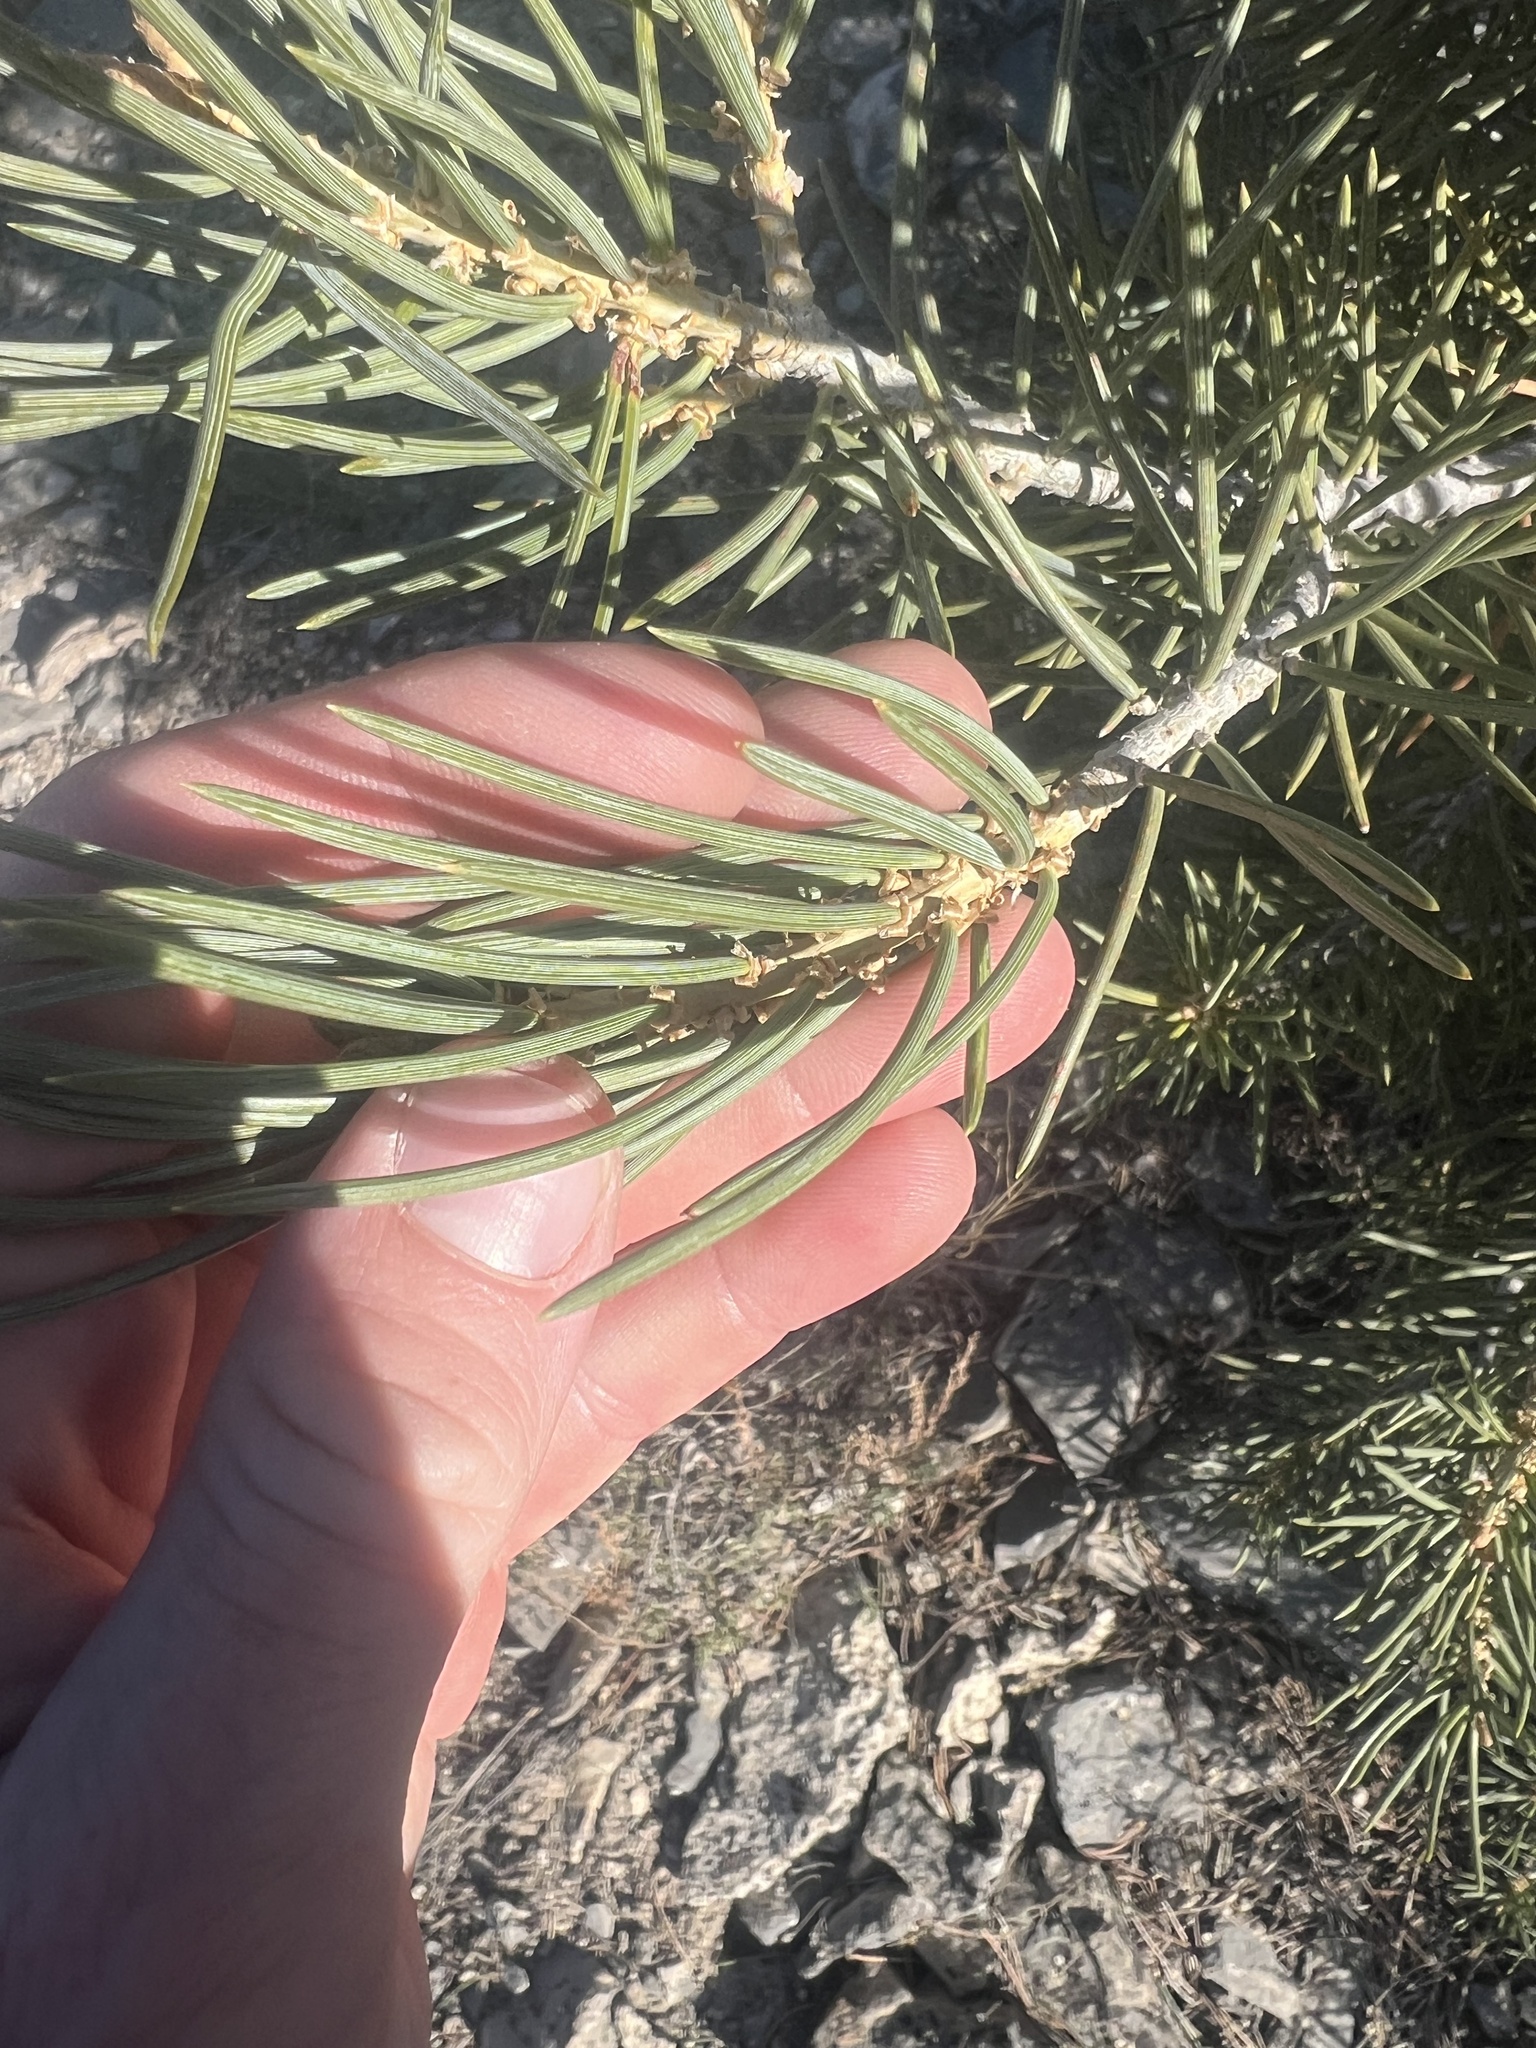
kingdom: Plantae
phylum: Tracheophyta
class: Pinopsida
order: Pinales
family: Pinaceae
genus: Pinus
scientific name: Pinus monophylla
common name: One-leaved nut pine
